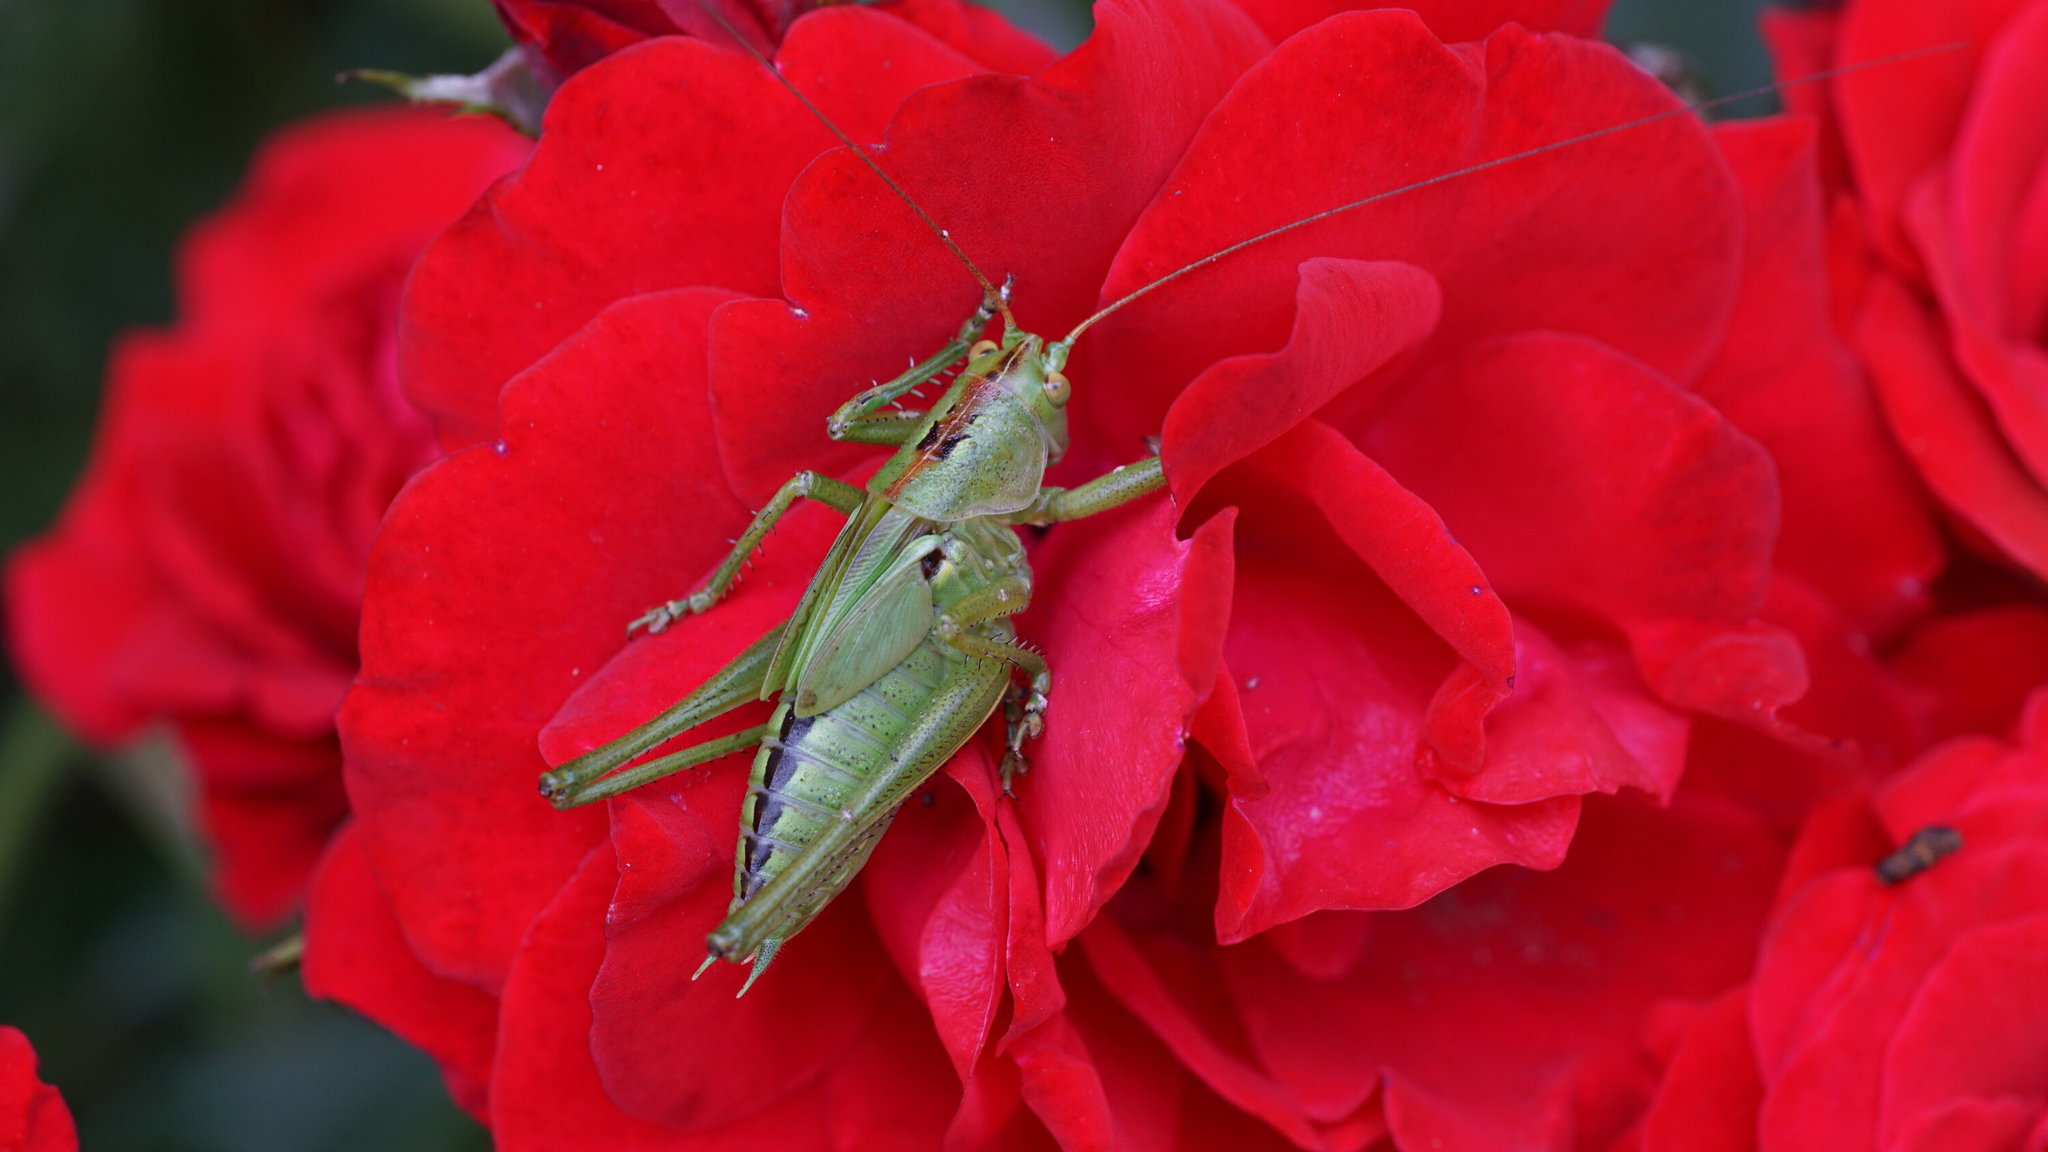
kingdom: Animalia
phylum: Arthropoda
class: Insecta
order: Orthoptera
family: Tettigoniidae
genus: Tettigonia
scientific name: Tettigonia viridissima
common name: Great green bush-cricket
